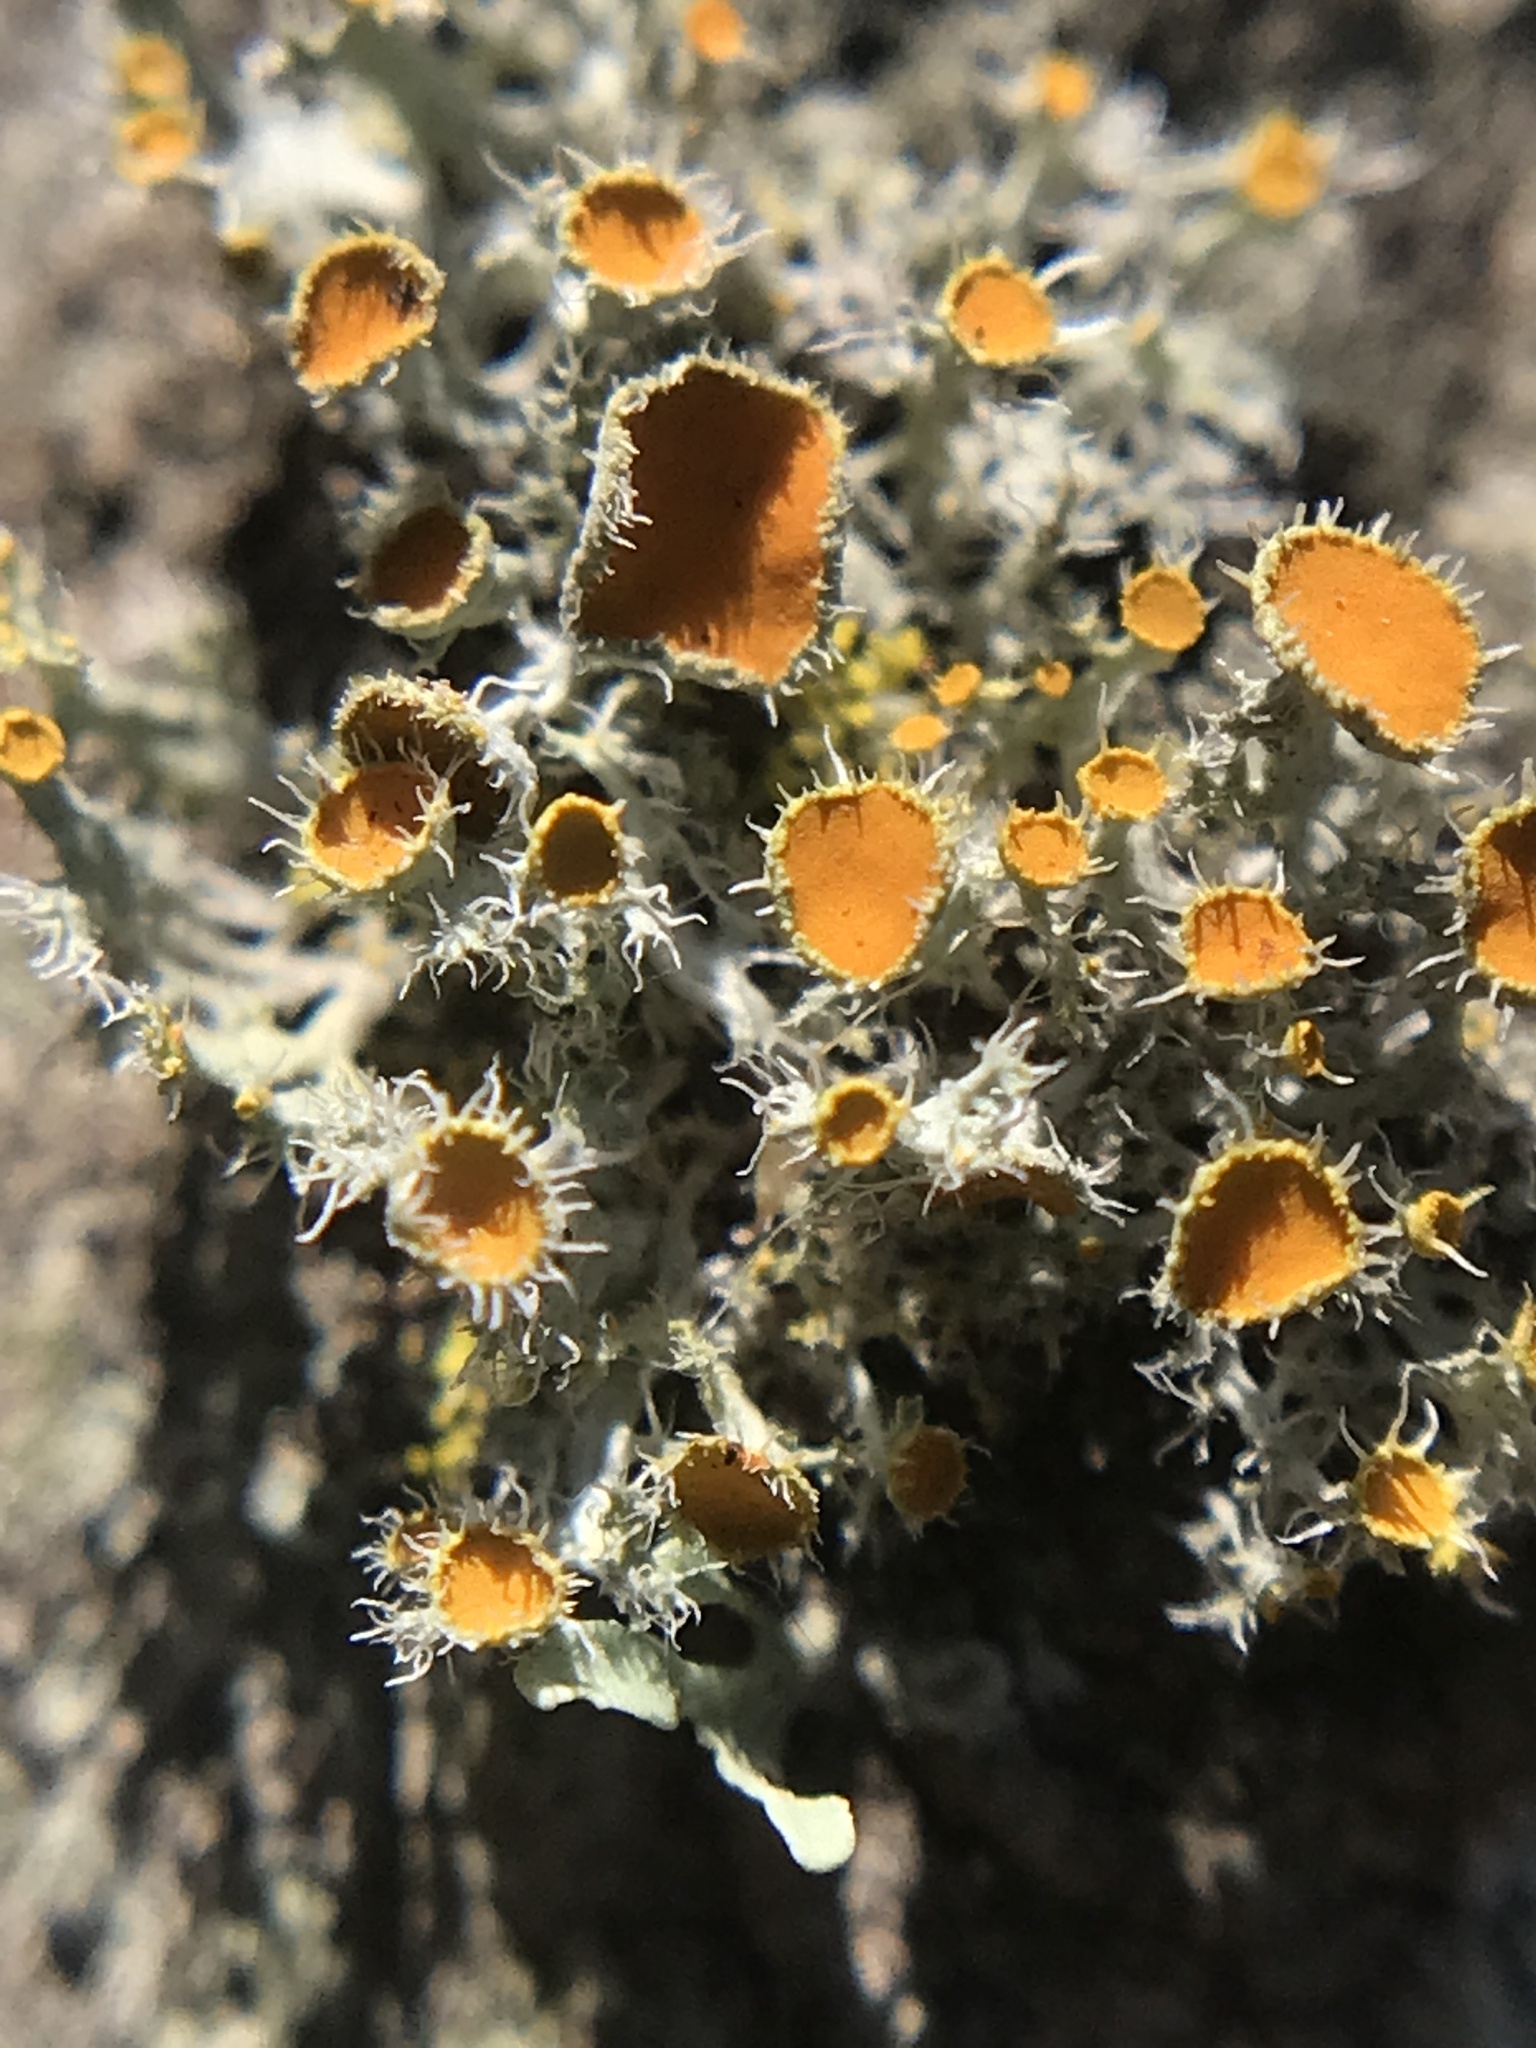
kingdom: Fungi
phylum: Ascomycota
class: Lecanoromycetes
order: Teloschistales
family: Teloschistaceae
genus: Niorma
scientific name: Niorma chrysophthalma
